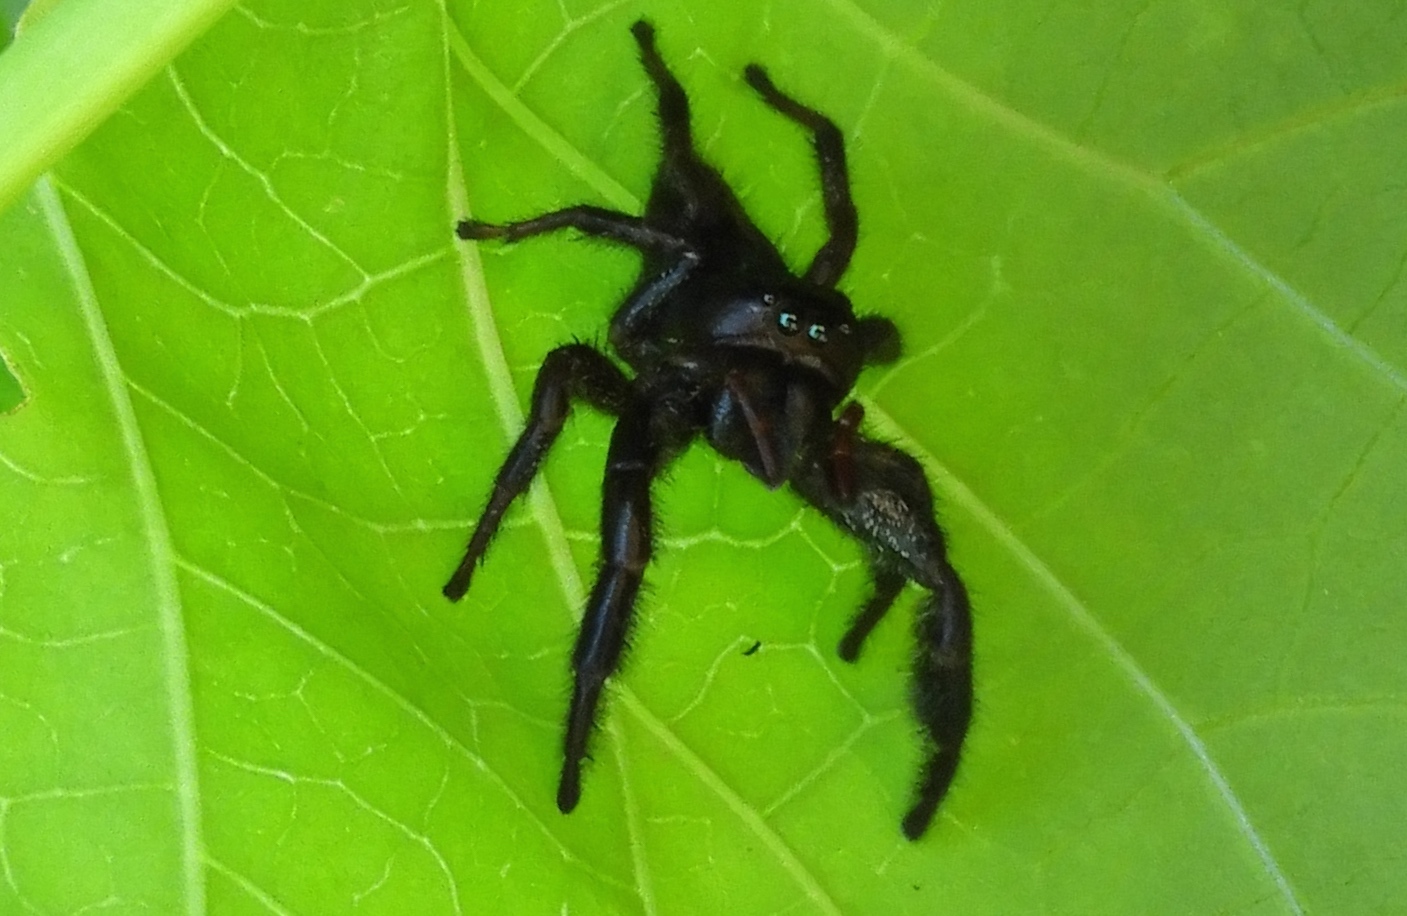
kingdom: Animalia
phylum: Arthropoda
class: Arachnida
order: Araneae
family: Salticidae
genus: Paraphidippus
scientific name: Paraphidippus
